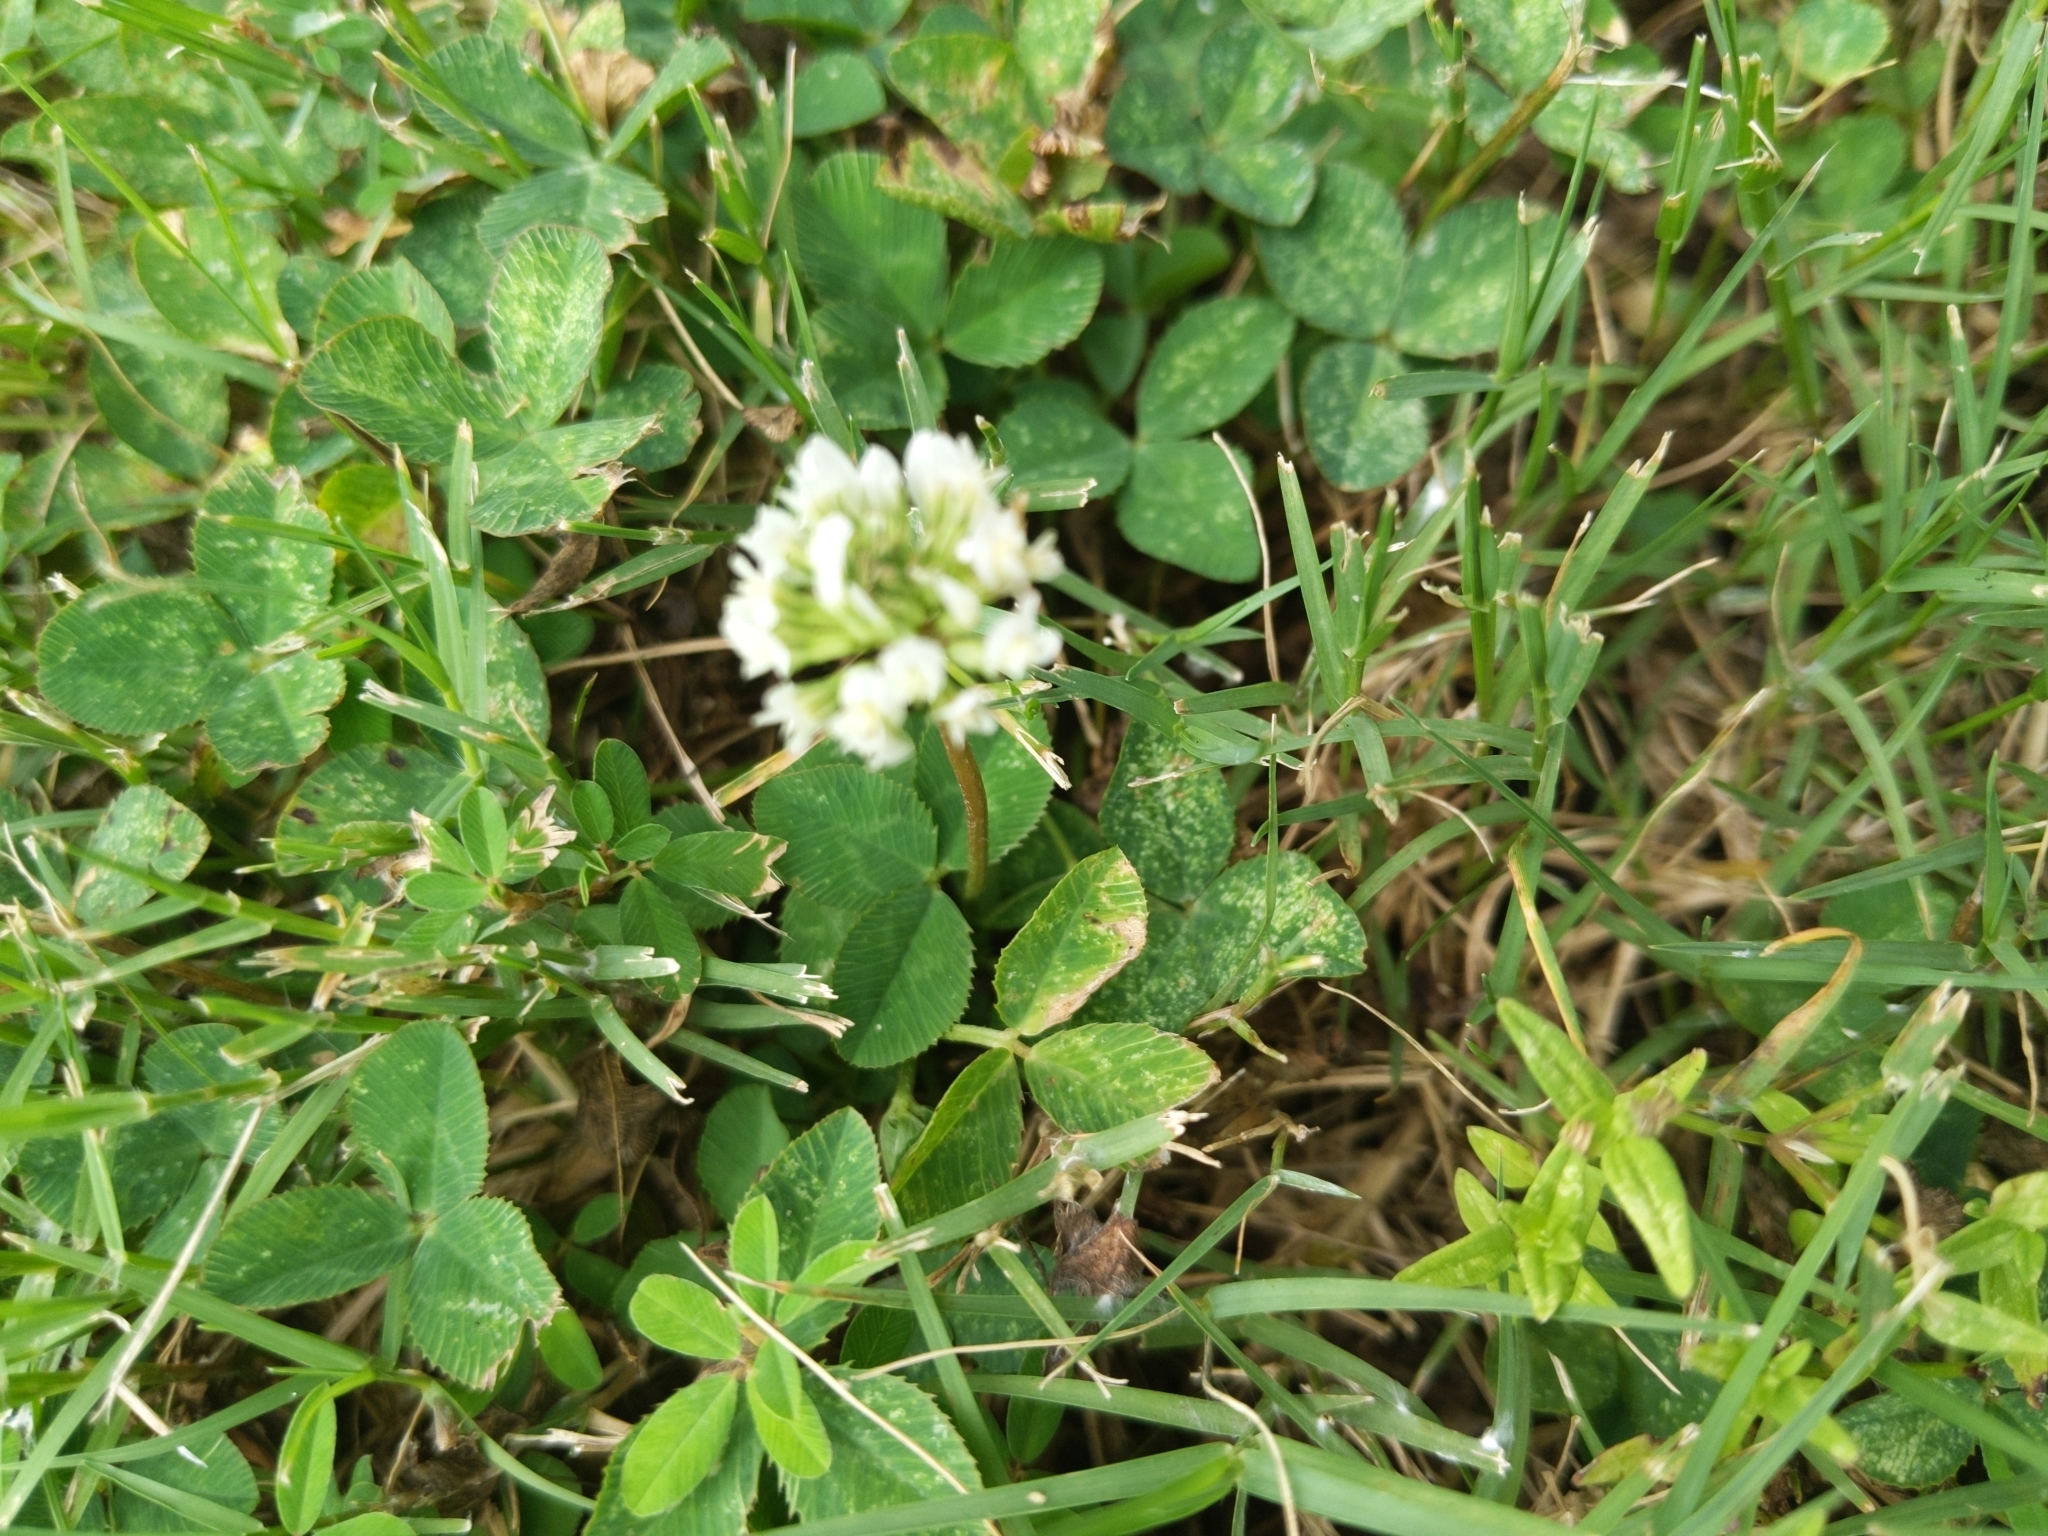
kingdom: Plantae
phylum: Tracheophyta
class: Magnoliopsida
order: Fabales
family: Fabaceae
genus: Trifolium
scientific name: Trifolium repens
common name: White clover
